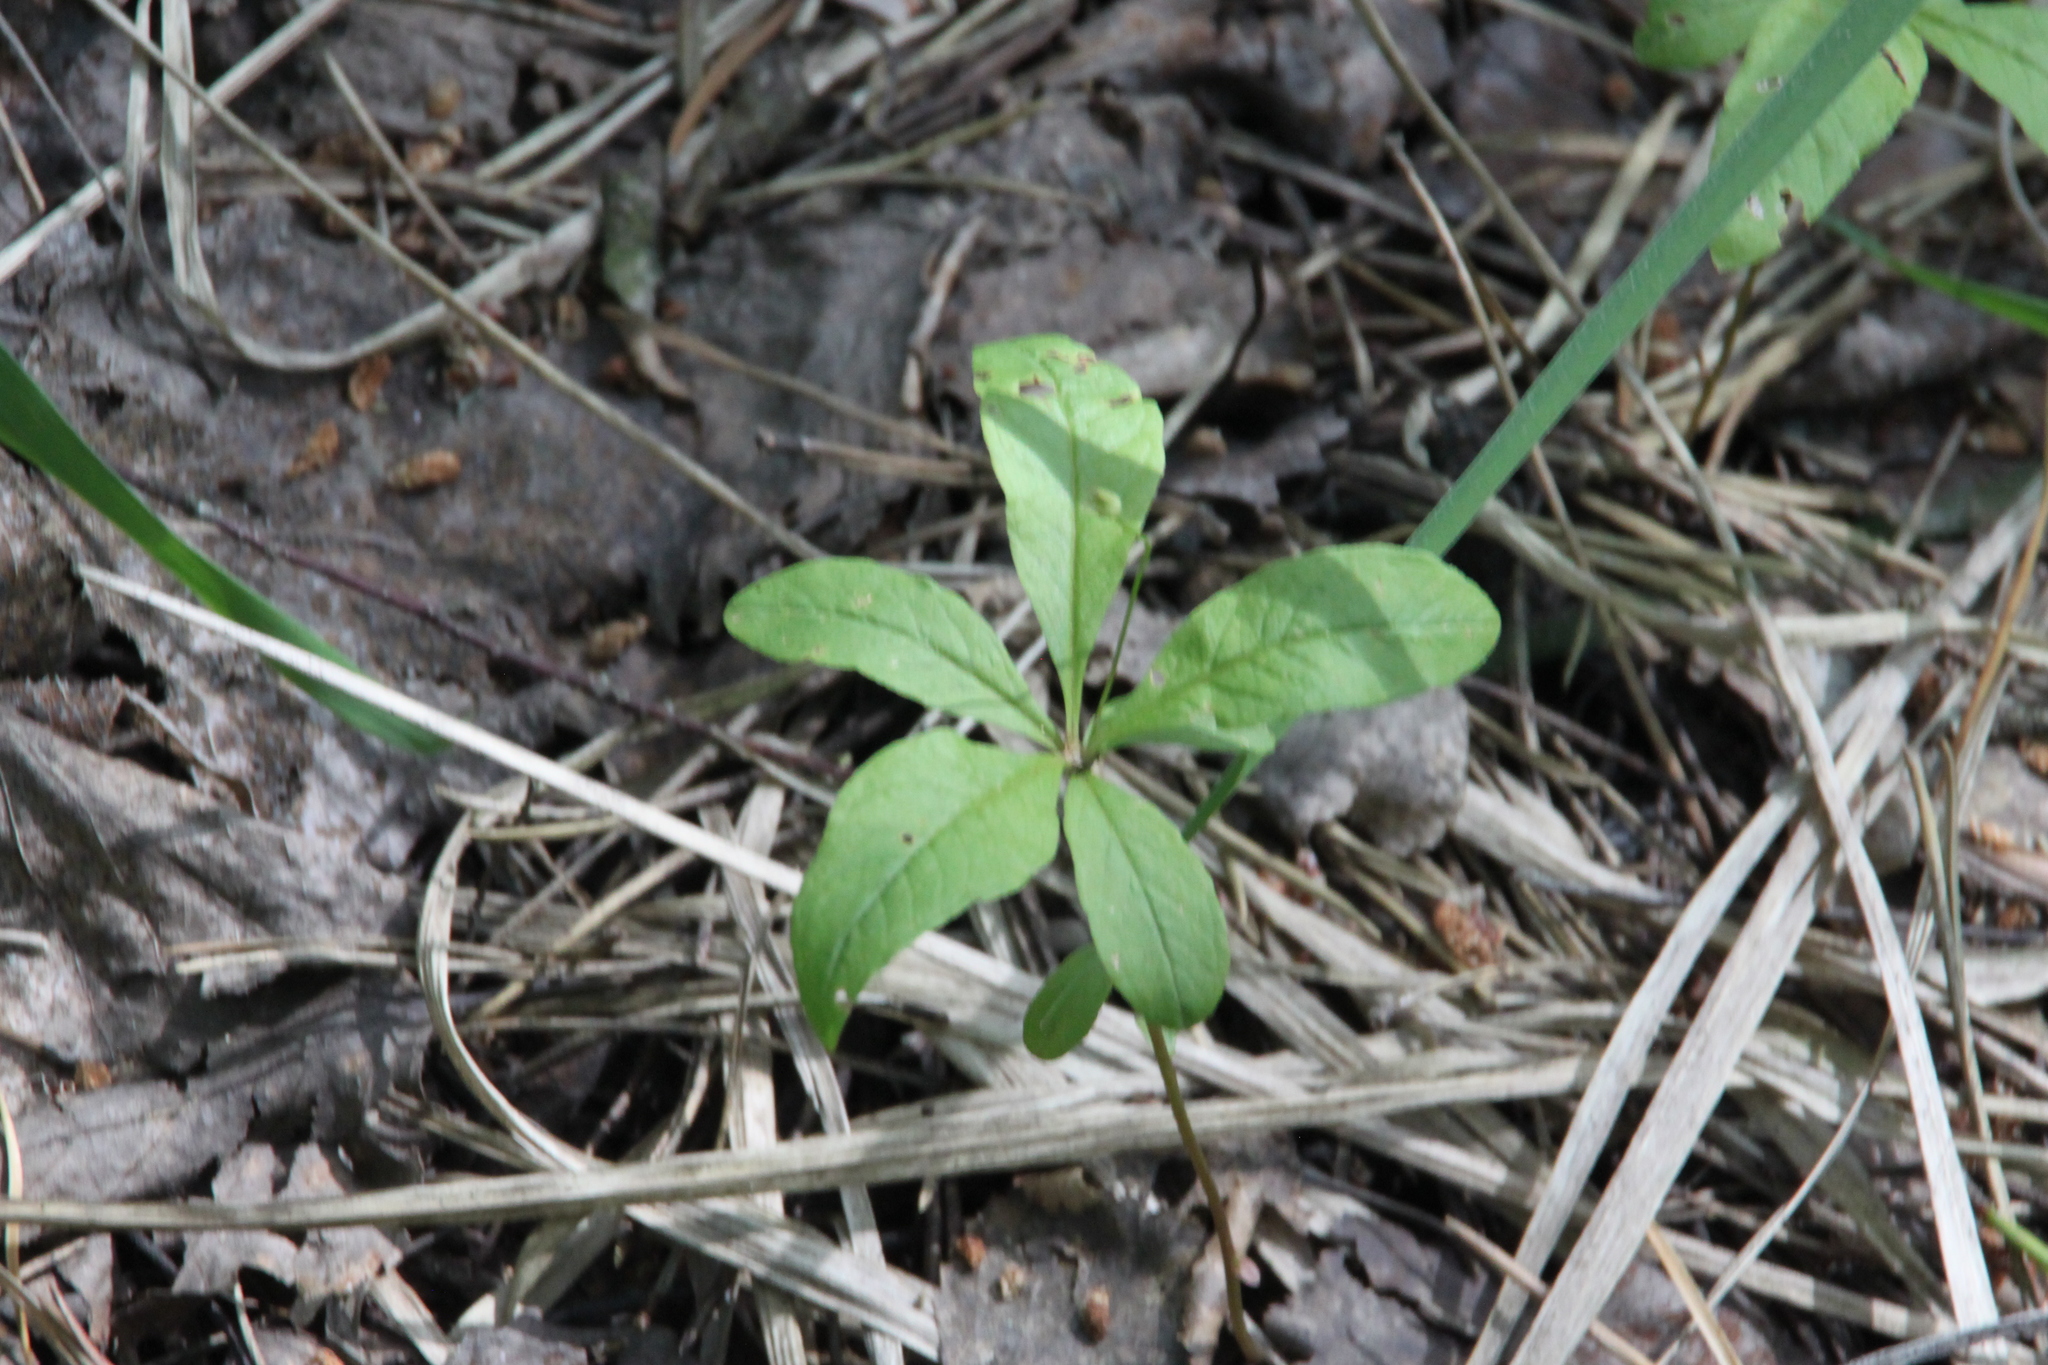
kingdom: Plantae
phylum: Tracheophyta
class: Magnoliopsida
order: Ericales
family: Primulaceae
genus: Lysimachia
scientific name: Lysimachia europaea
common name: Arctic starflower
